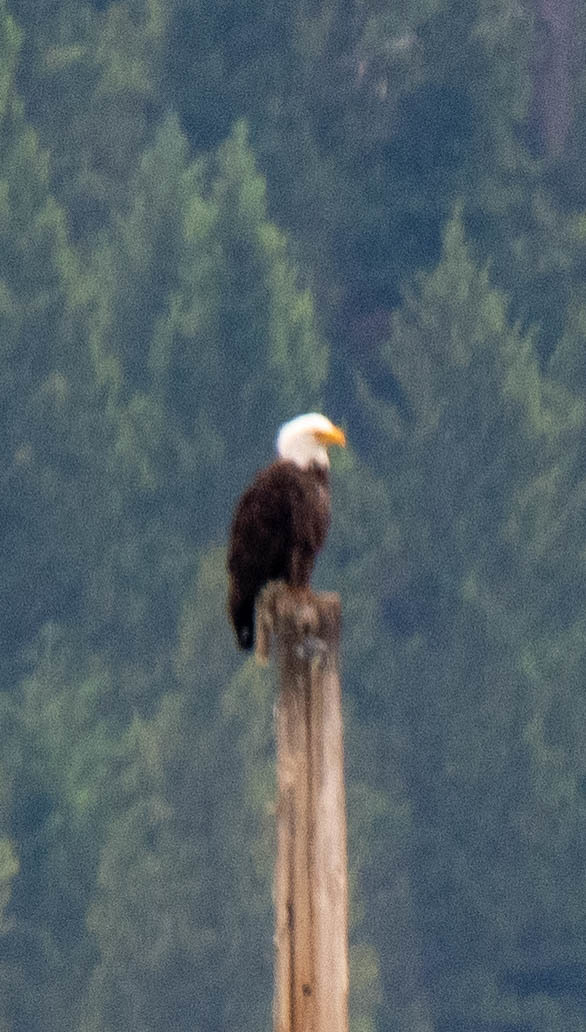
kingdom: Animalia
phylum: Chordata
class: Aves
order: Accipitriformes
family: Accipitridae
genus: Haliaeetus
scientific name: Haliaeetus leucocephalus
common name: Bald eagle
